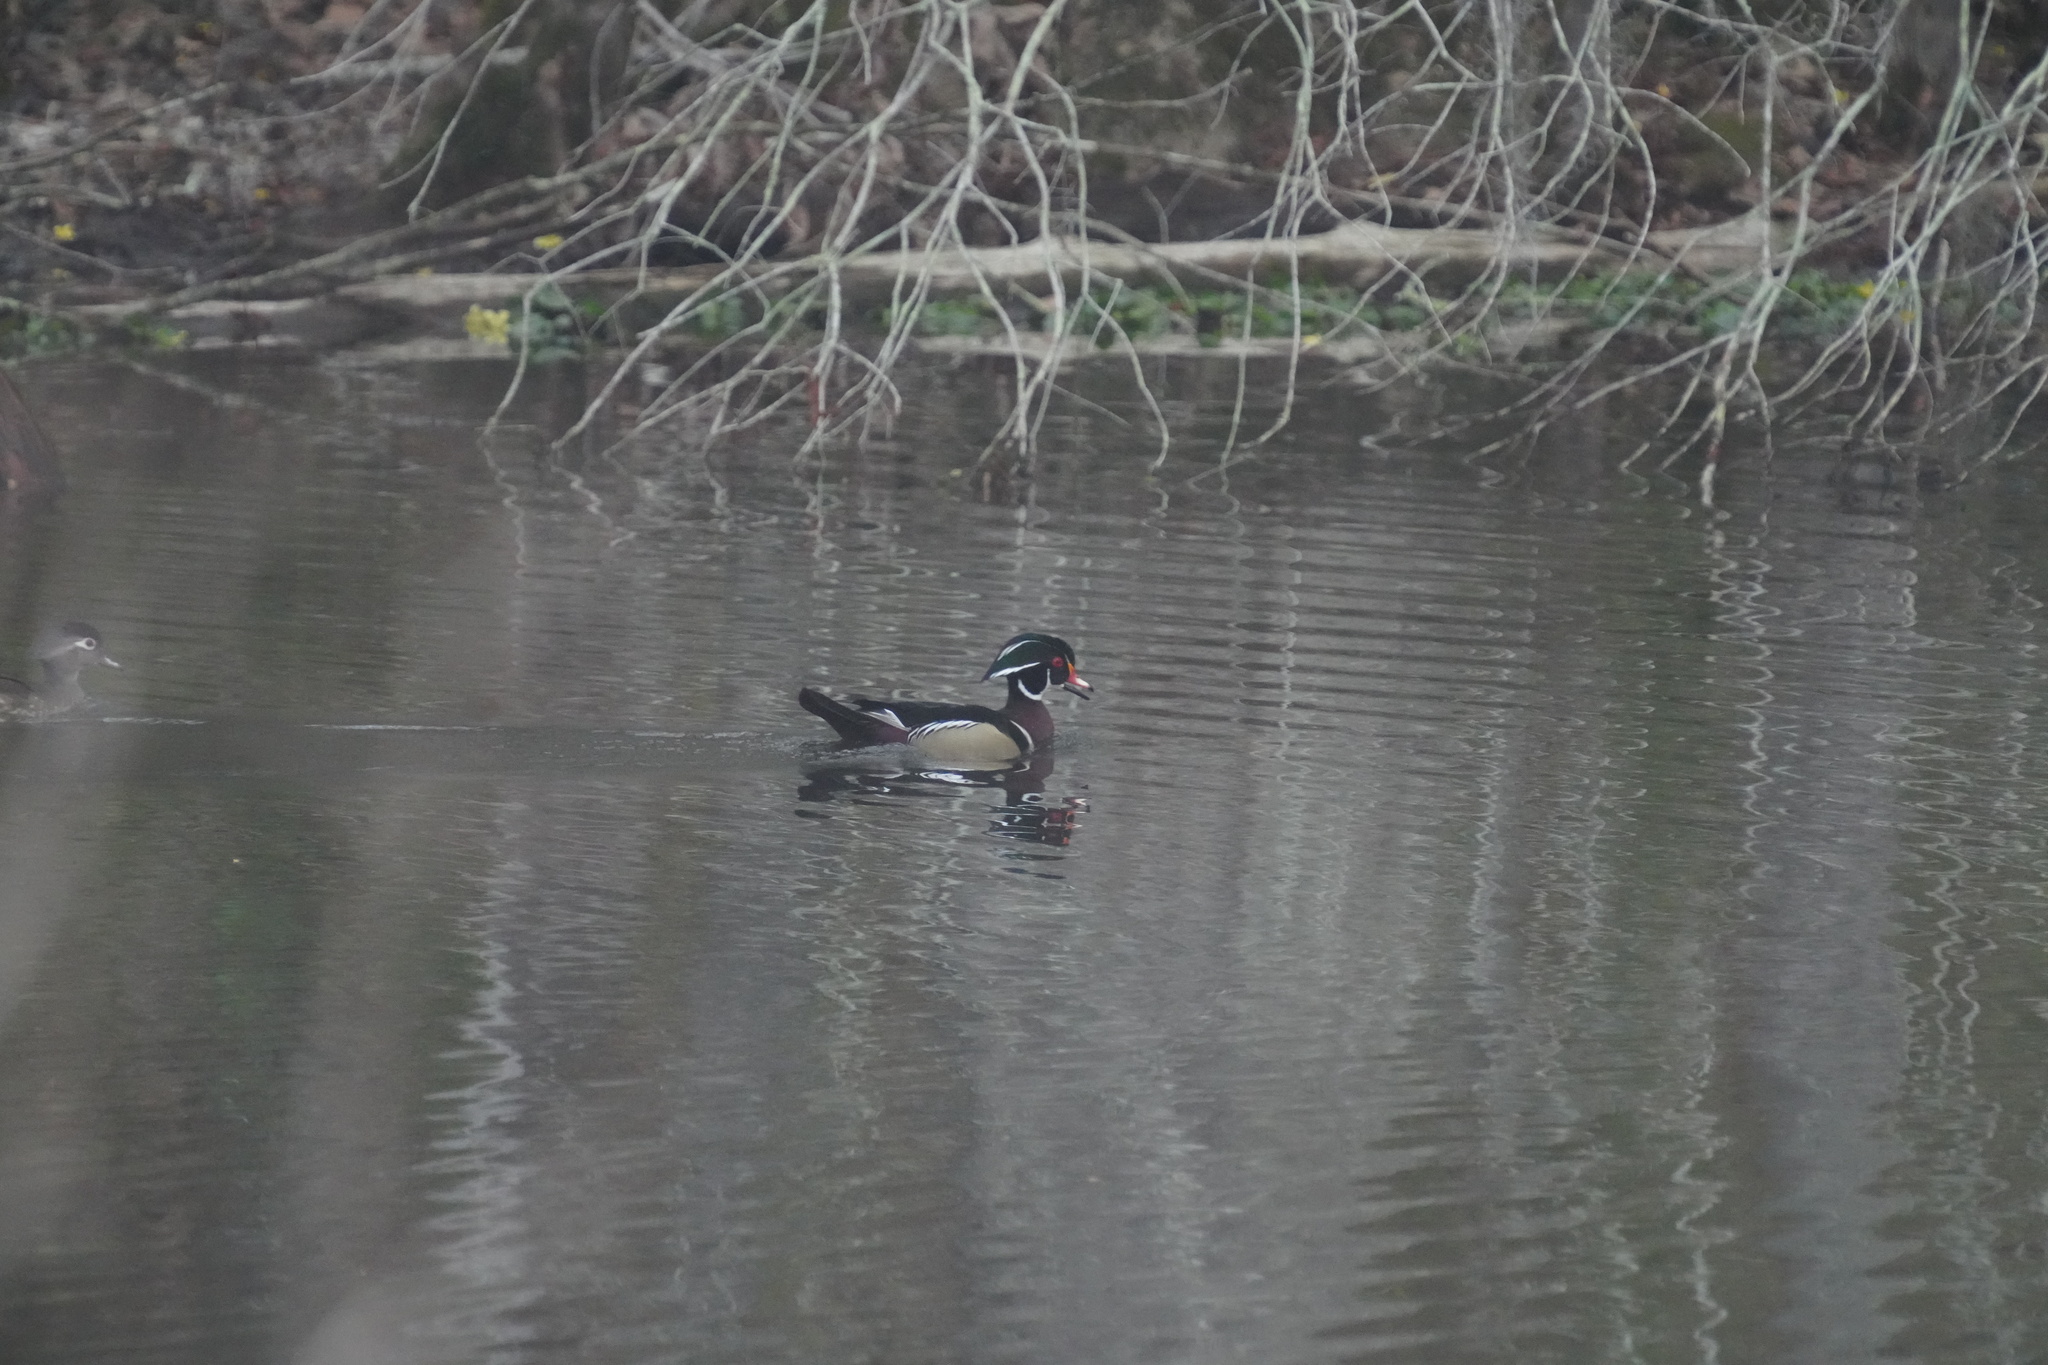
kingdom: Animalia
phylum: Chordata
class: Aves
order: Anseriformes
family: Anatidae
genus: Aix
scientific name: Aix sponsa
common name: Wood duck
